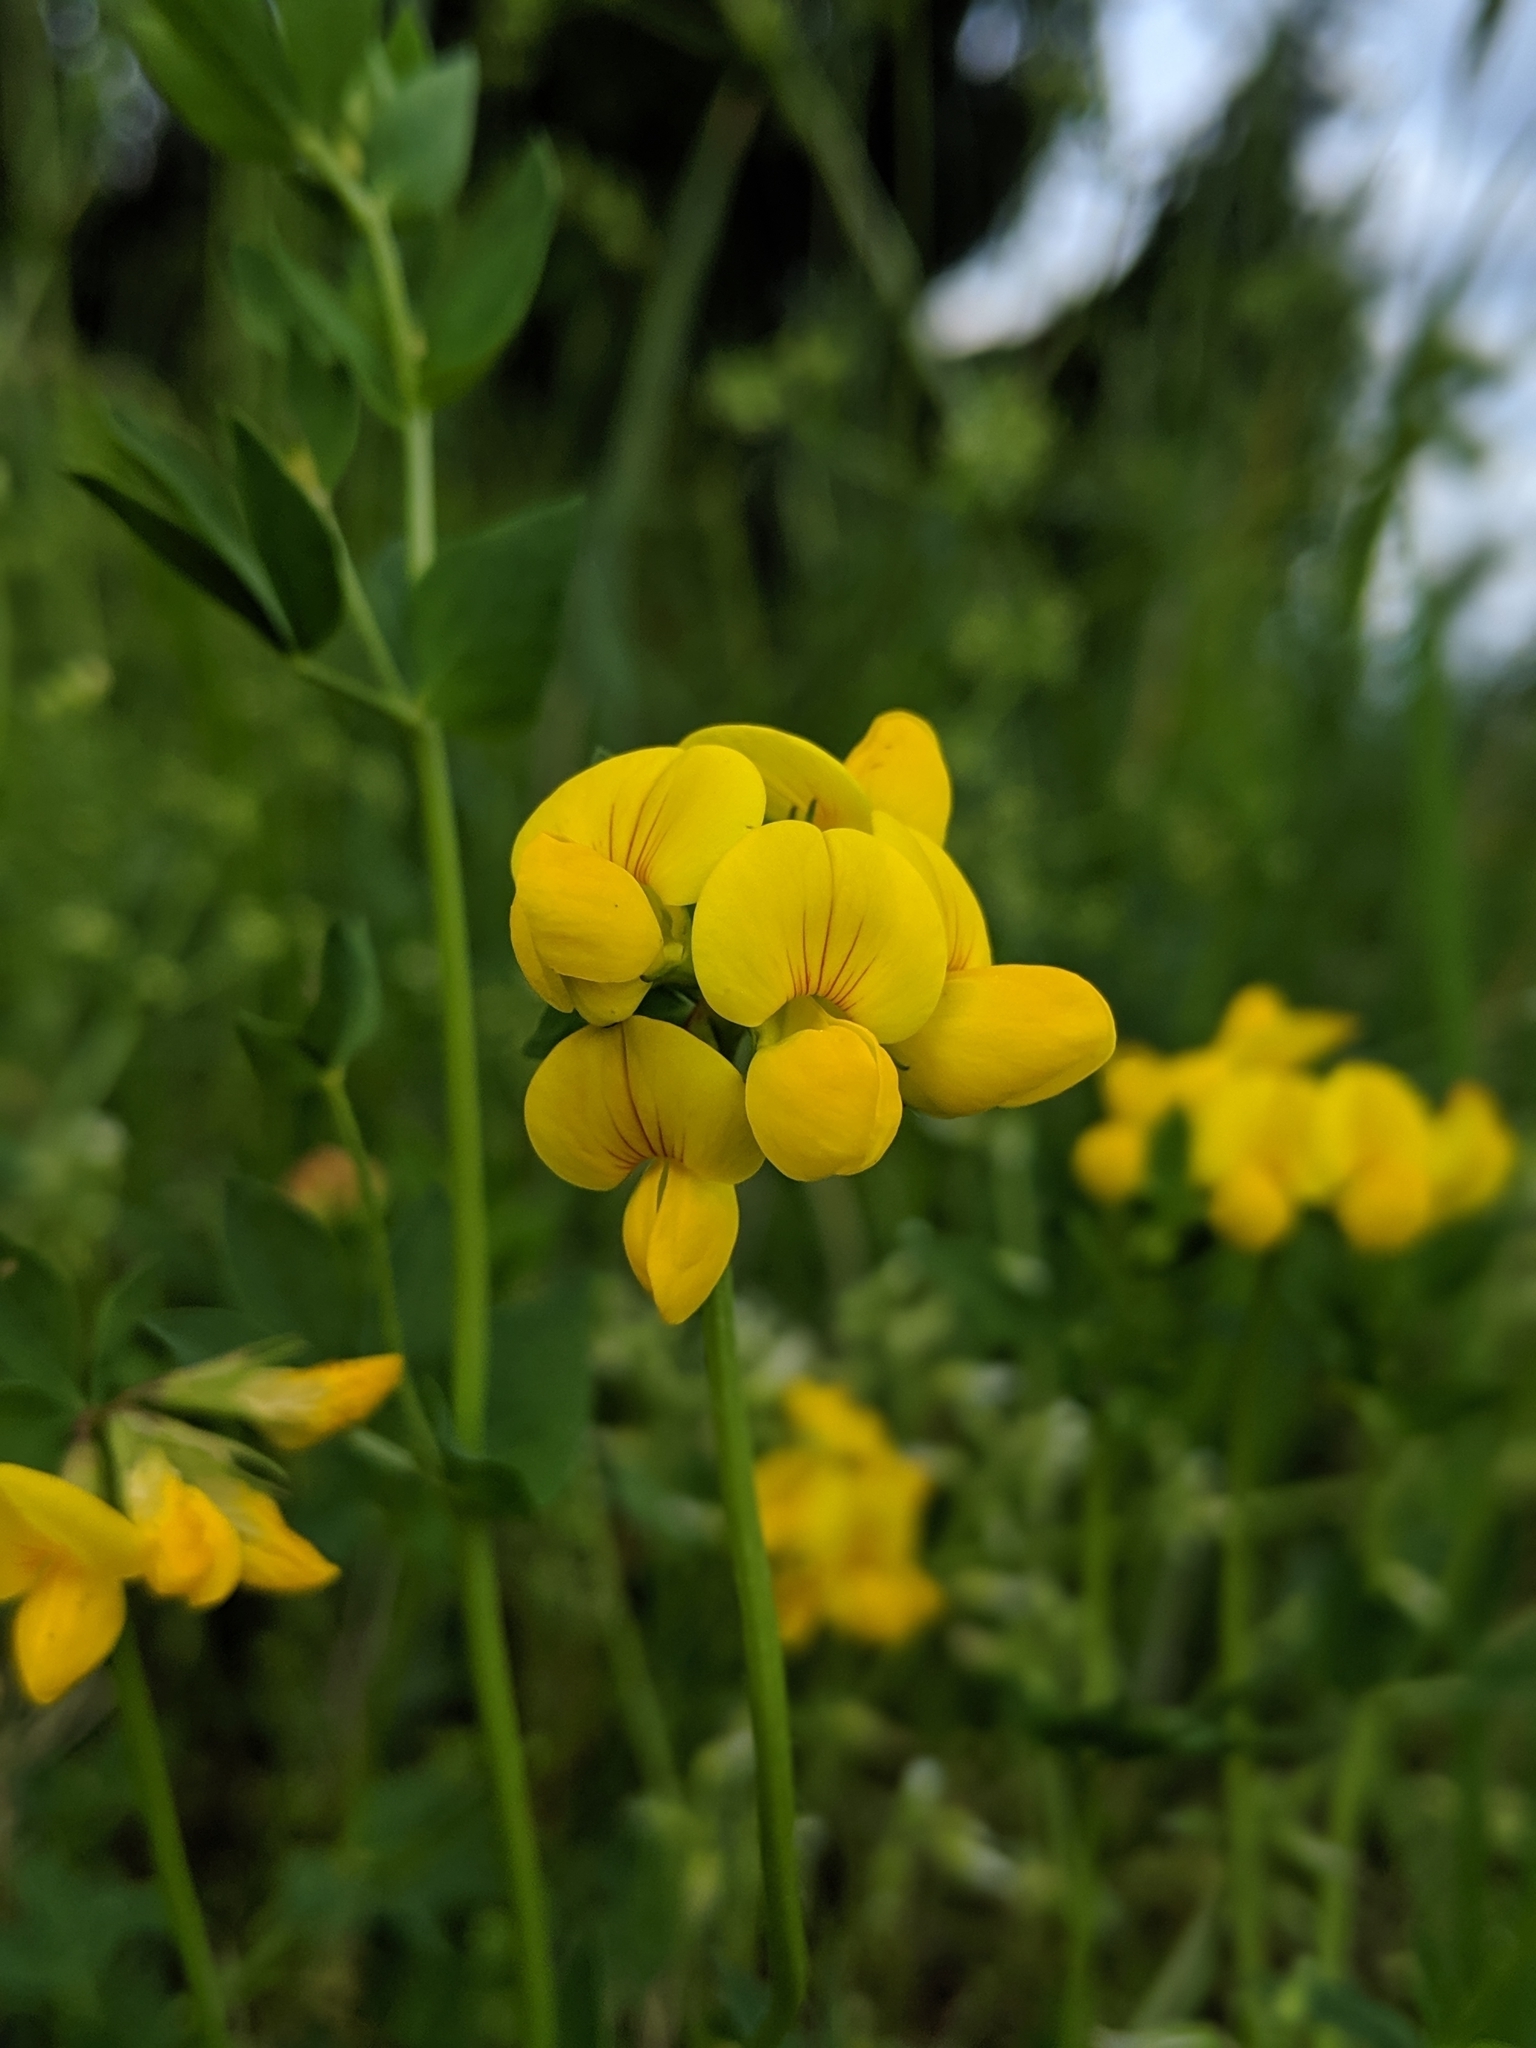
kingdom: Plantae
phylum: Tracheophyta
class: Magnoliopsida
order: Fabales
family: Fabaceae
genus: Lotus
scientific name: Lotus corniculatus
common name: Common bird's-foot-trefoil
